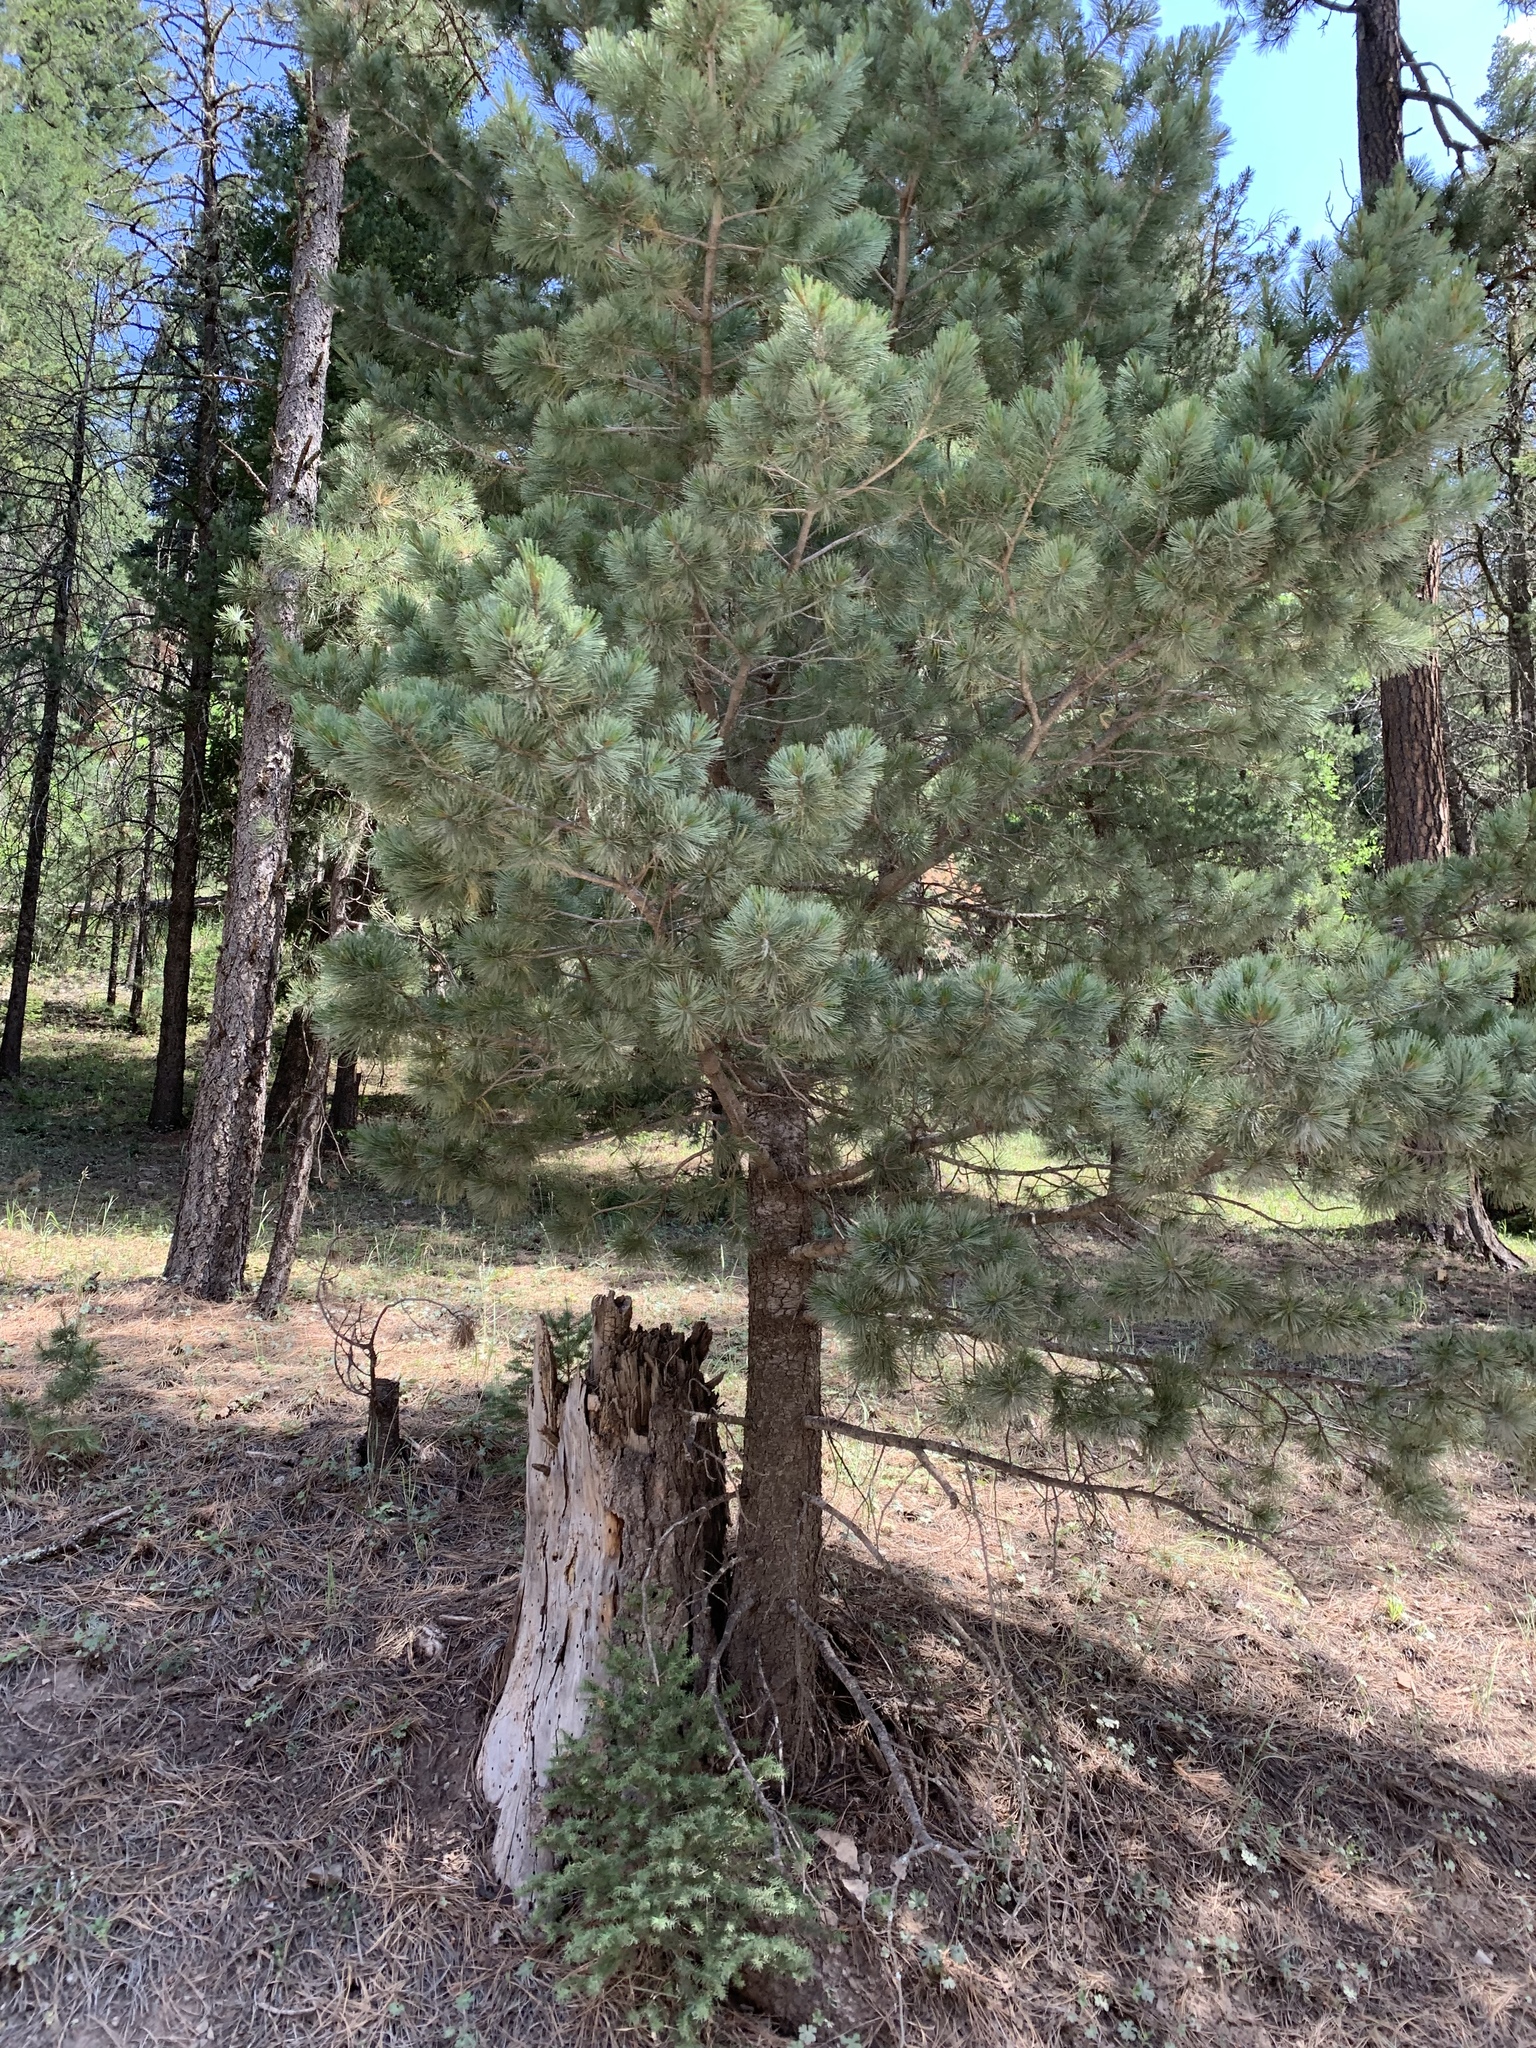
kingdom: Plantae
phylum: Tracheophyta
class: Pinopsida
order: Pinales
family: Pinaceae
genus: Pinus
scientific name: Pinus strobiformis
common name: Southwestern white pine
